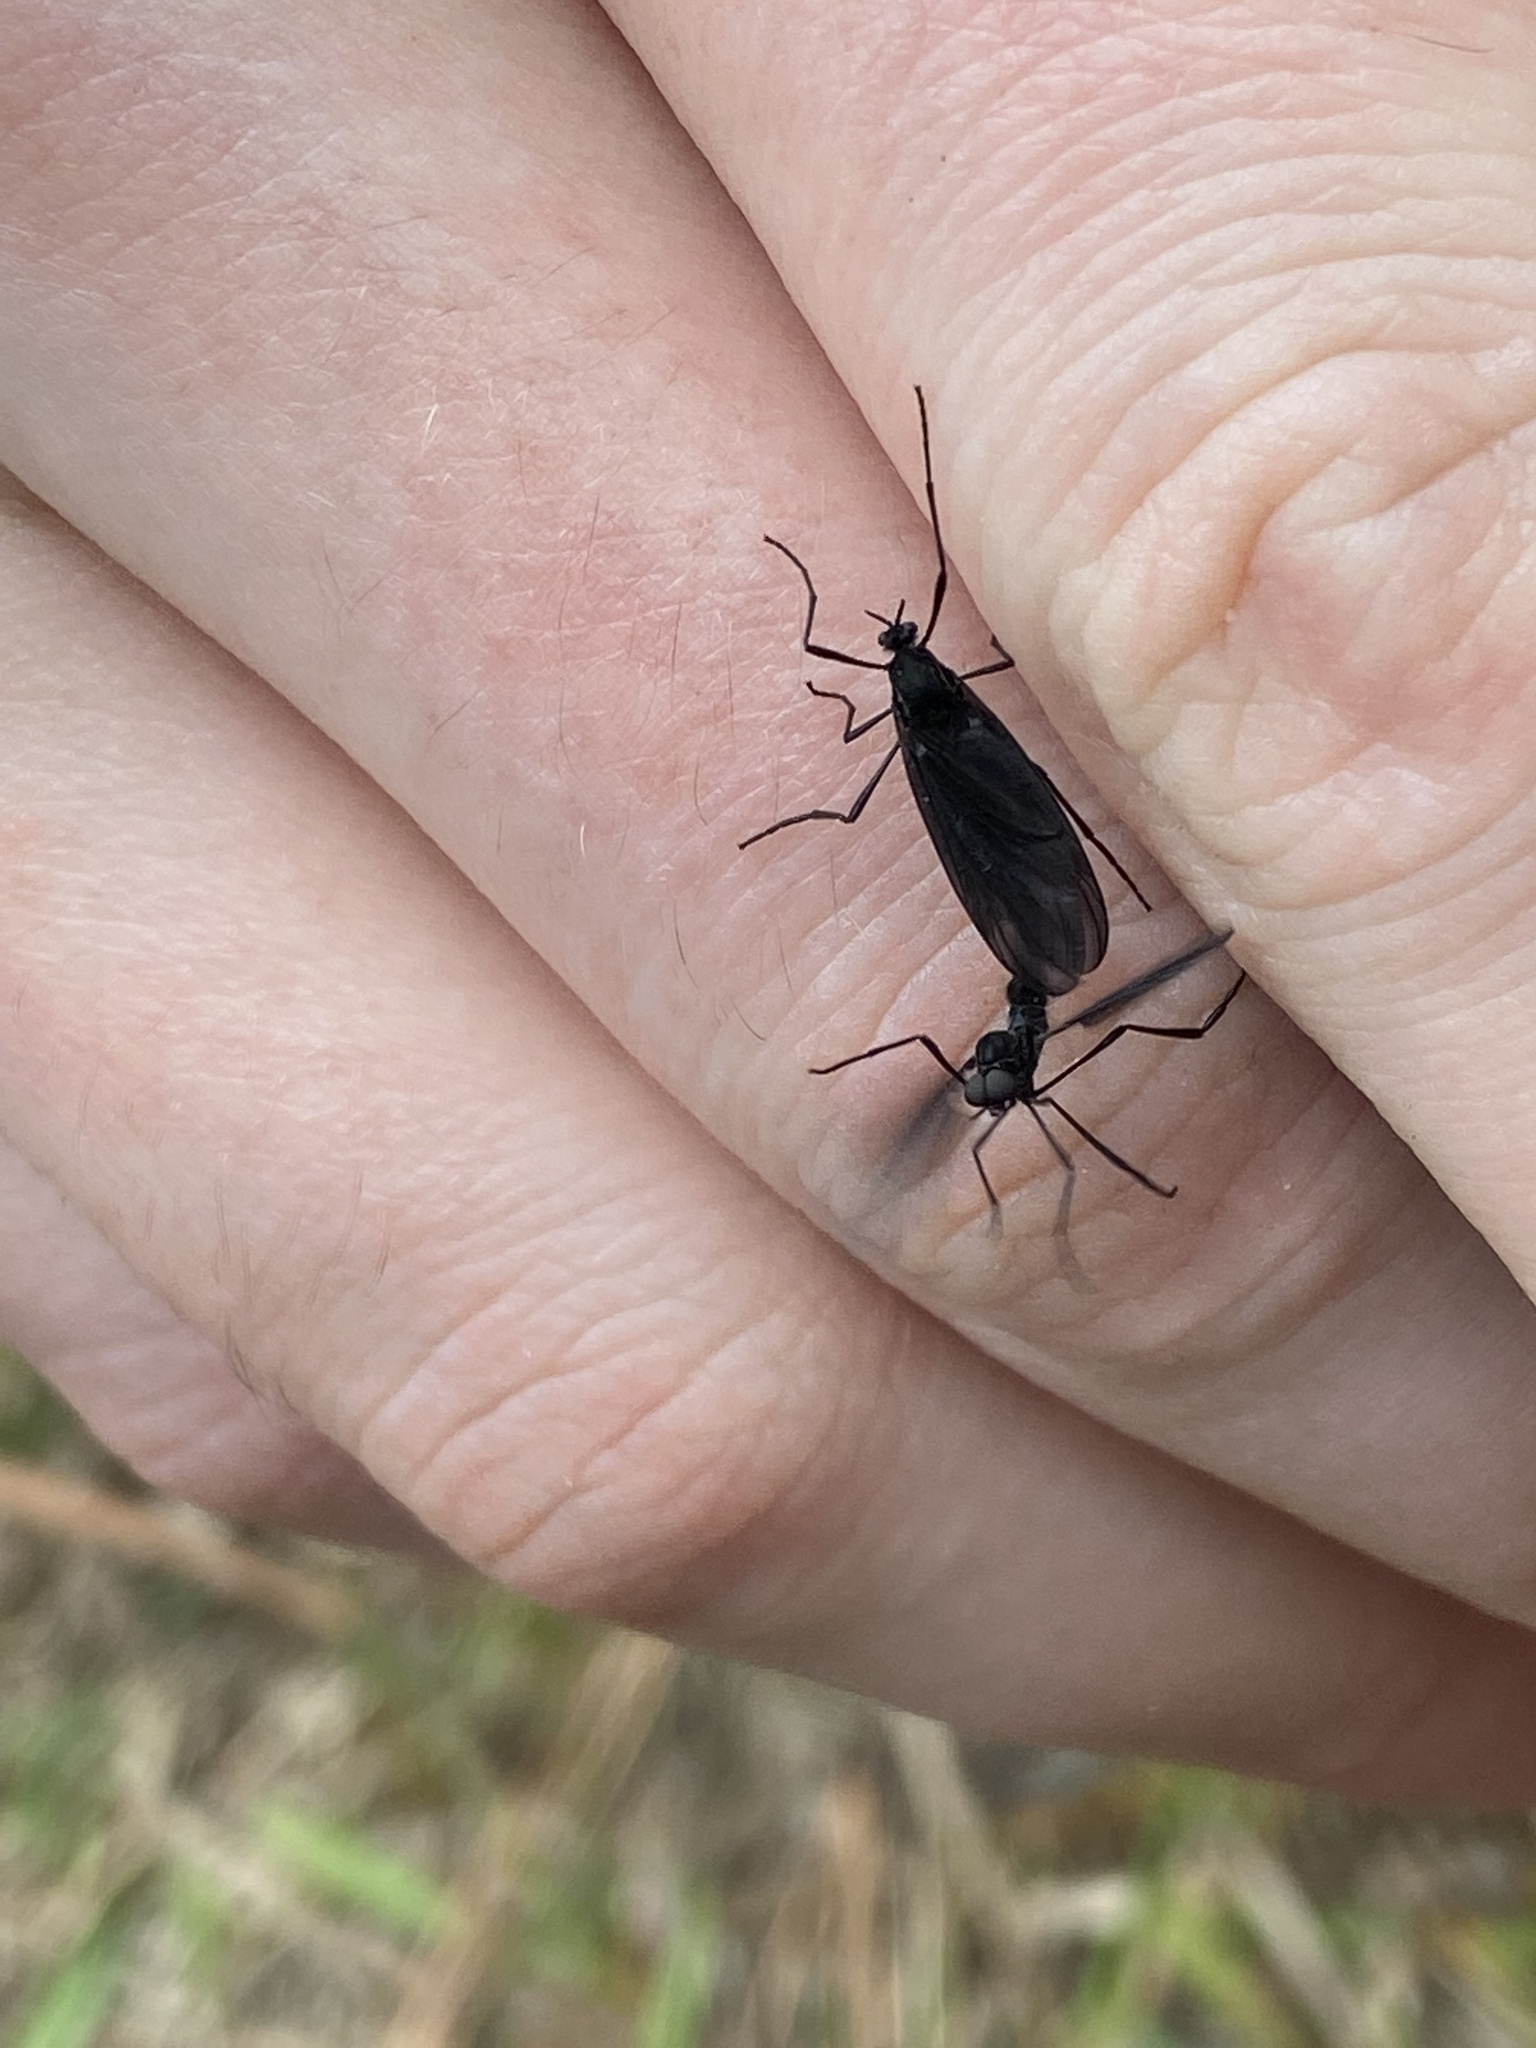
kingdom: Animalia
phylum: Arthropoda
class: Insecta
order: Diptera
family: Bibionidae
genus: Penthetria
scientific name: Penthetria heteroptera
